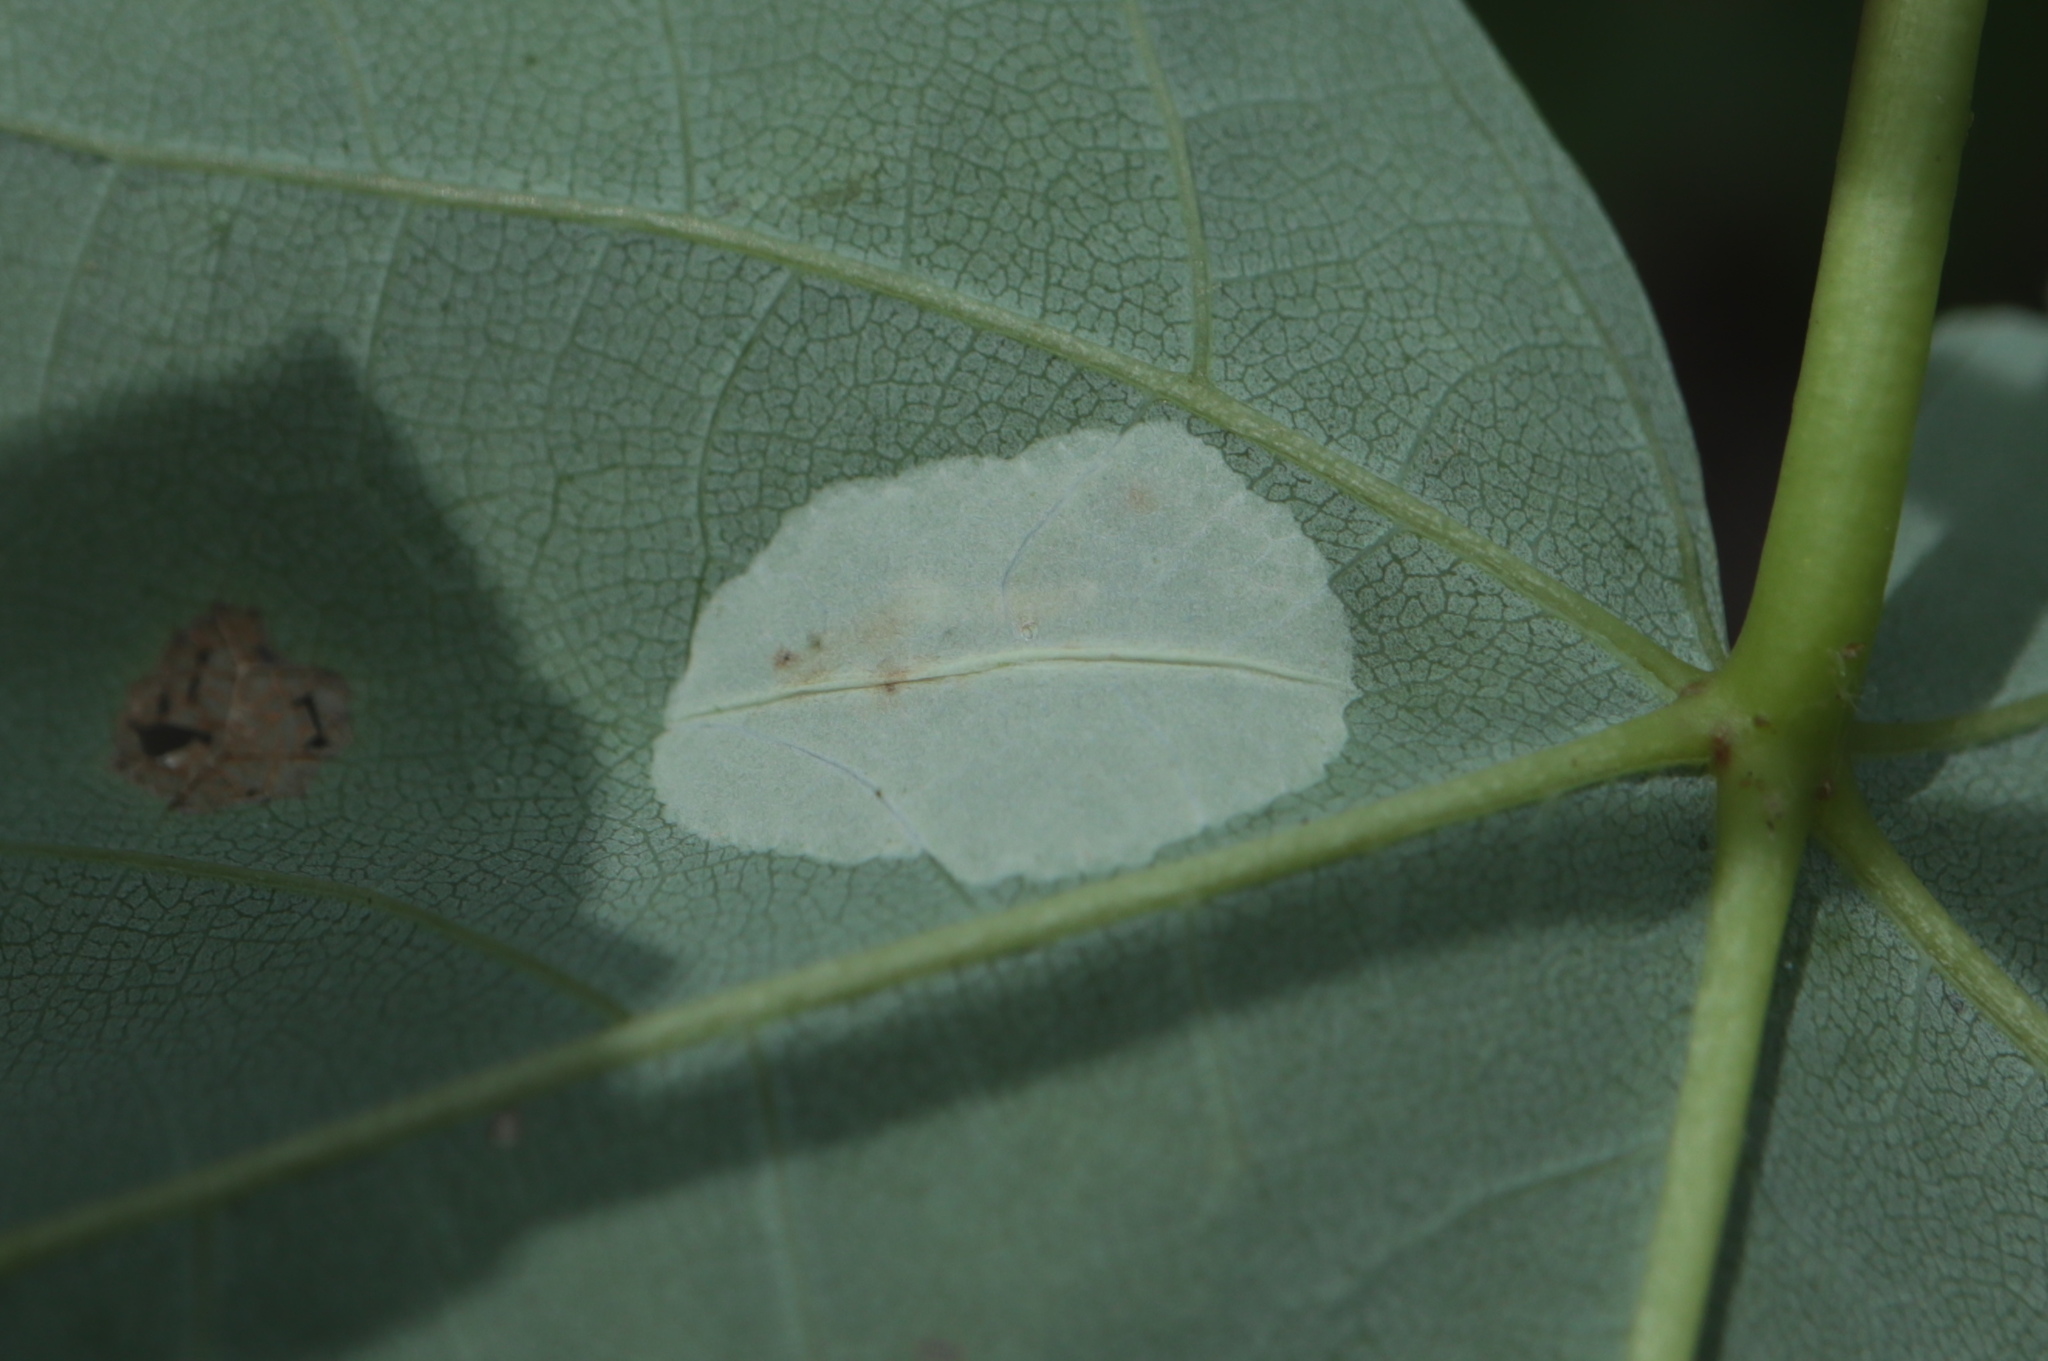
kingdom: Animalia
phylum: Arthropoda
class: Insecta
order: Lepidoptera
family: Gracillariidae
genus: Phyllonorycter
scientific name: Phyllonorycter
